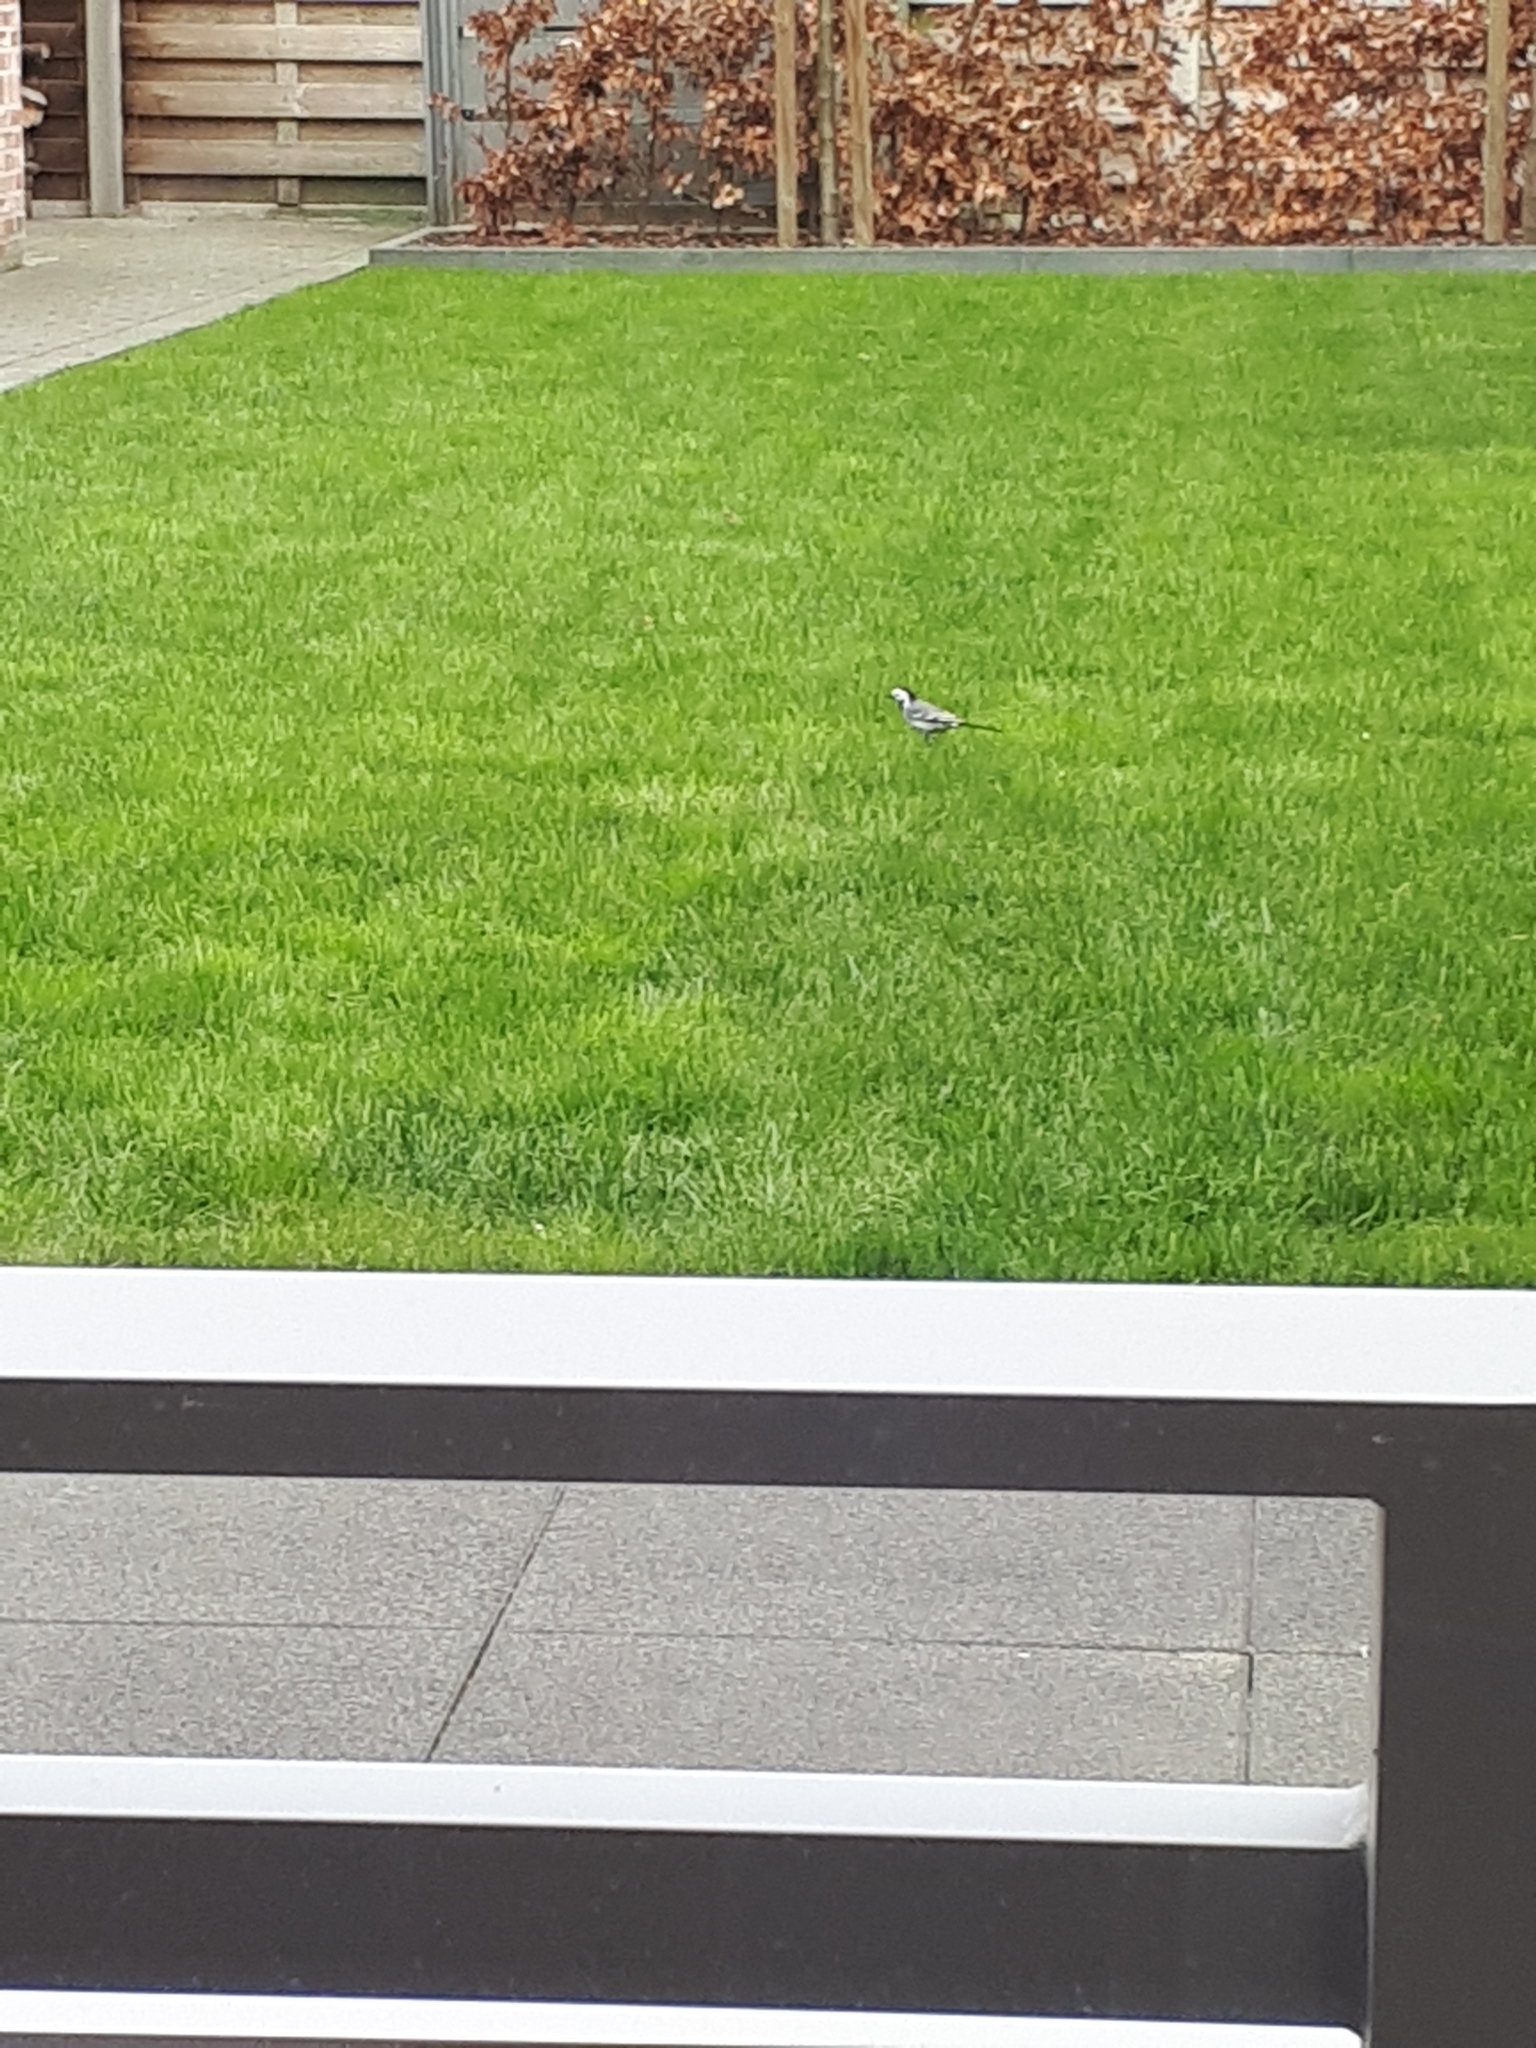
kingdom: Animalia
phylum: Chordata
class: Aves
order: Passeriformes
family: Motacillidae
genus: Motacilla
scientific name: Motacilla alba
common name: White wagtail
